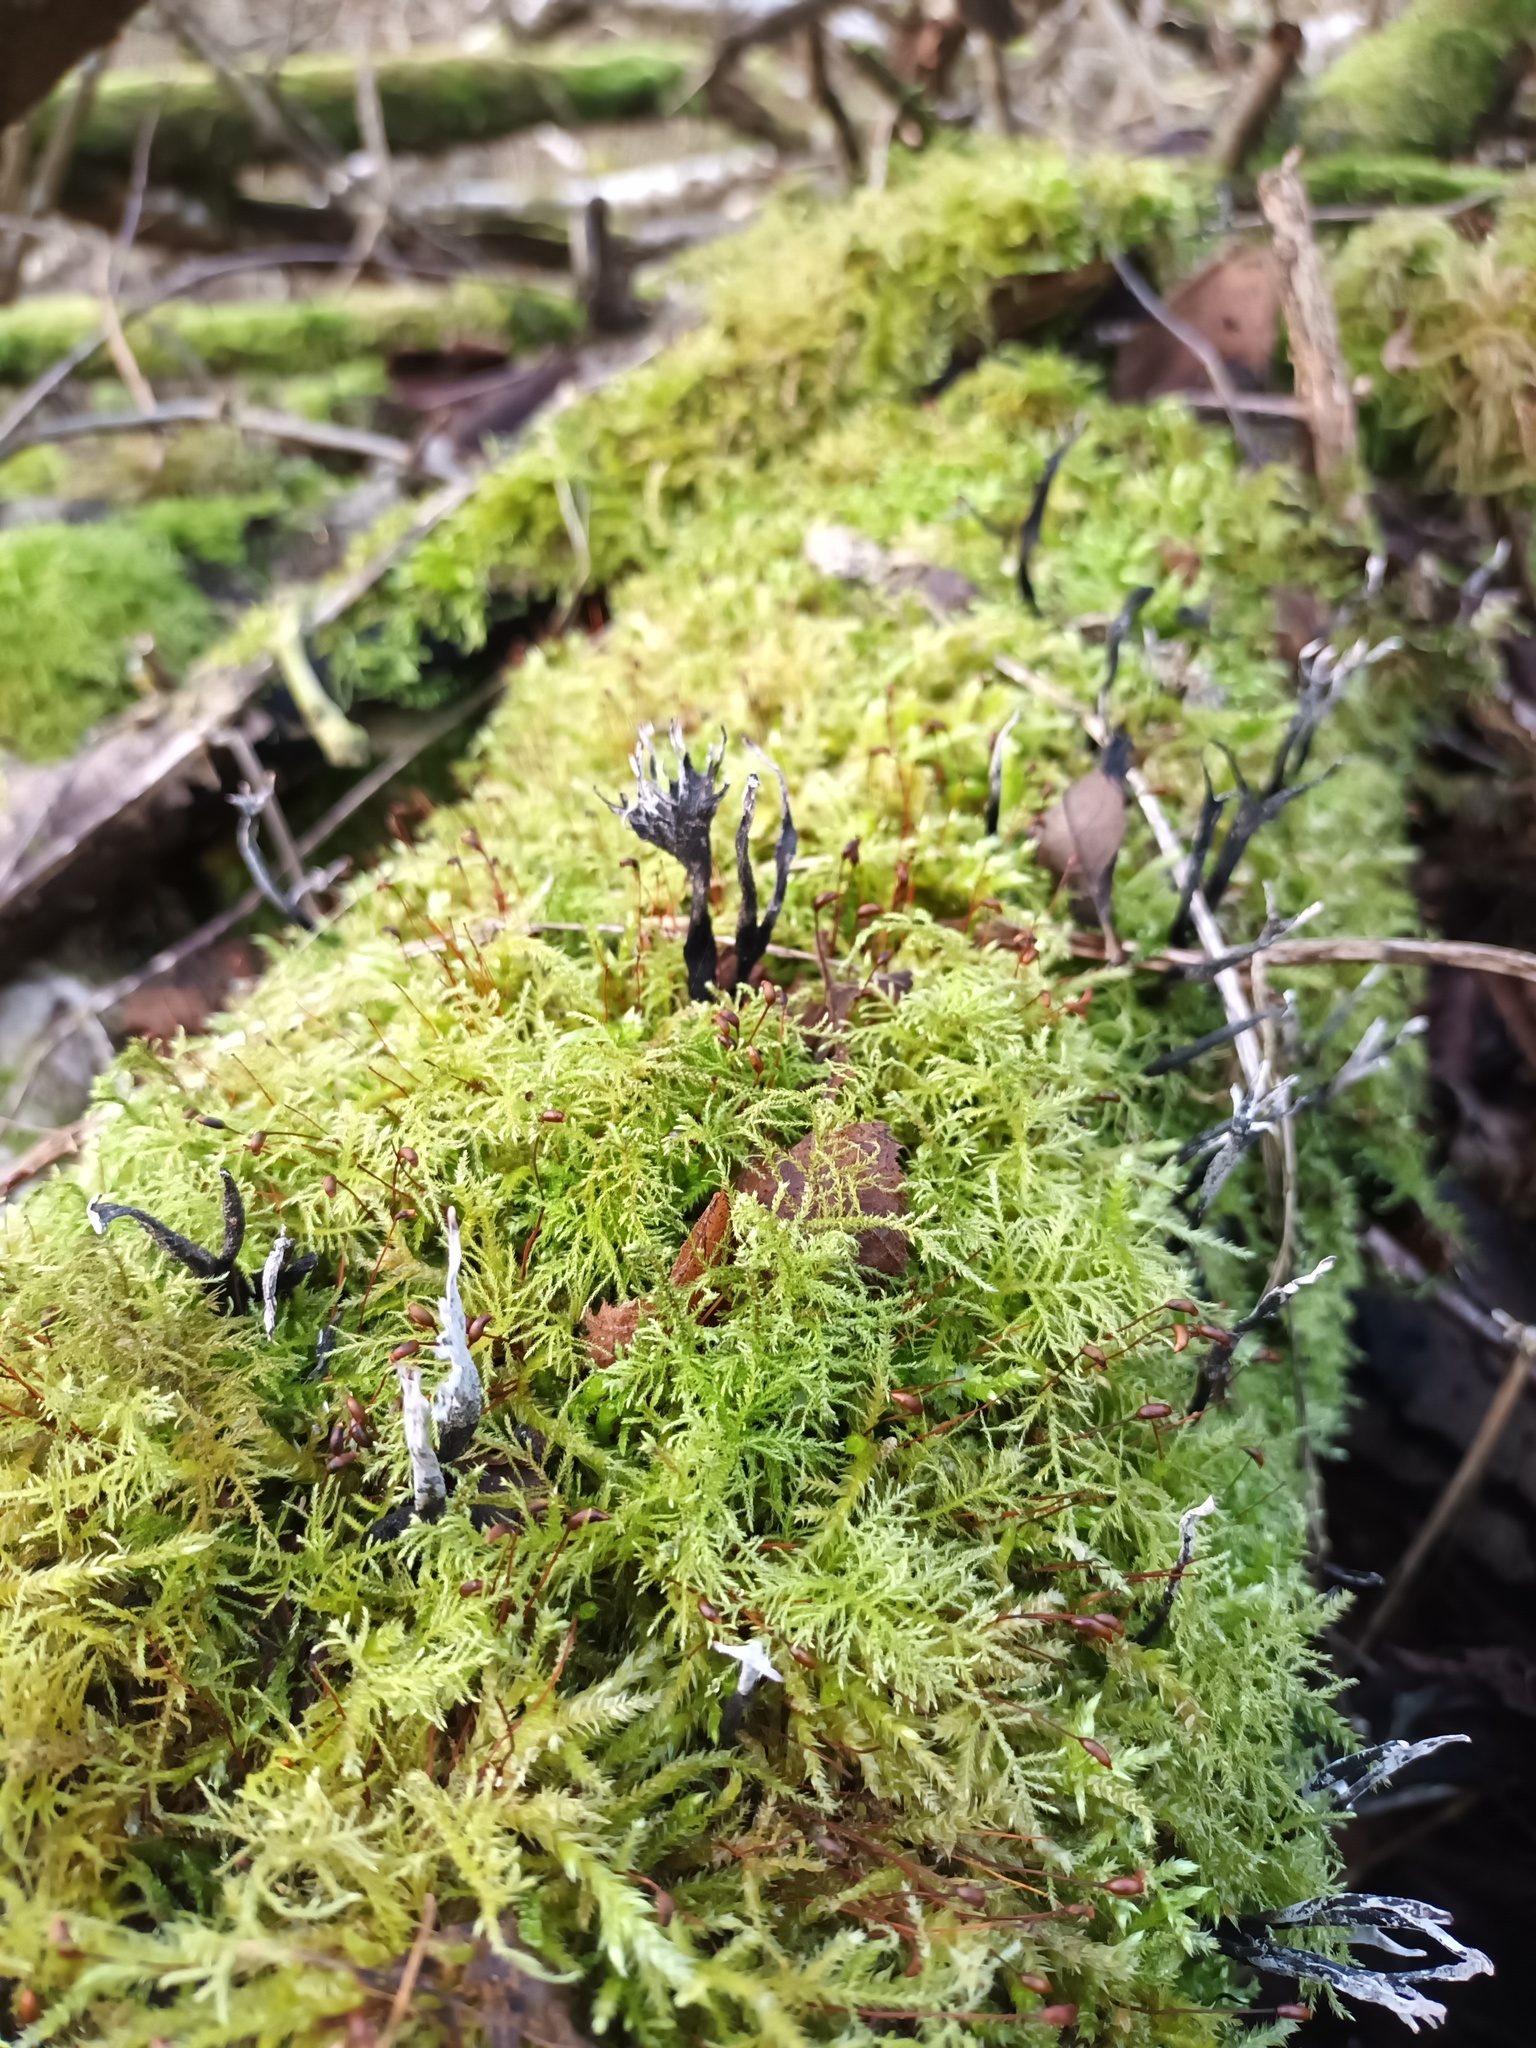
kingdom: Fungi
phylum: Ascomycota
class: Sordariomycetes
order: Xylariales
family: Xylariaceae
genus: Xylaria
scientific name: Xylaria hypoxylon
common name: Candle-snuff fungus
